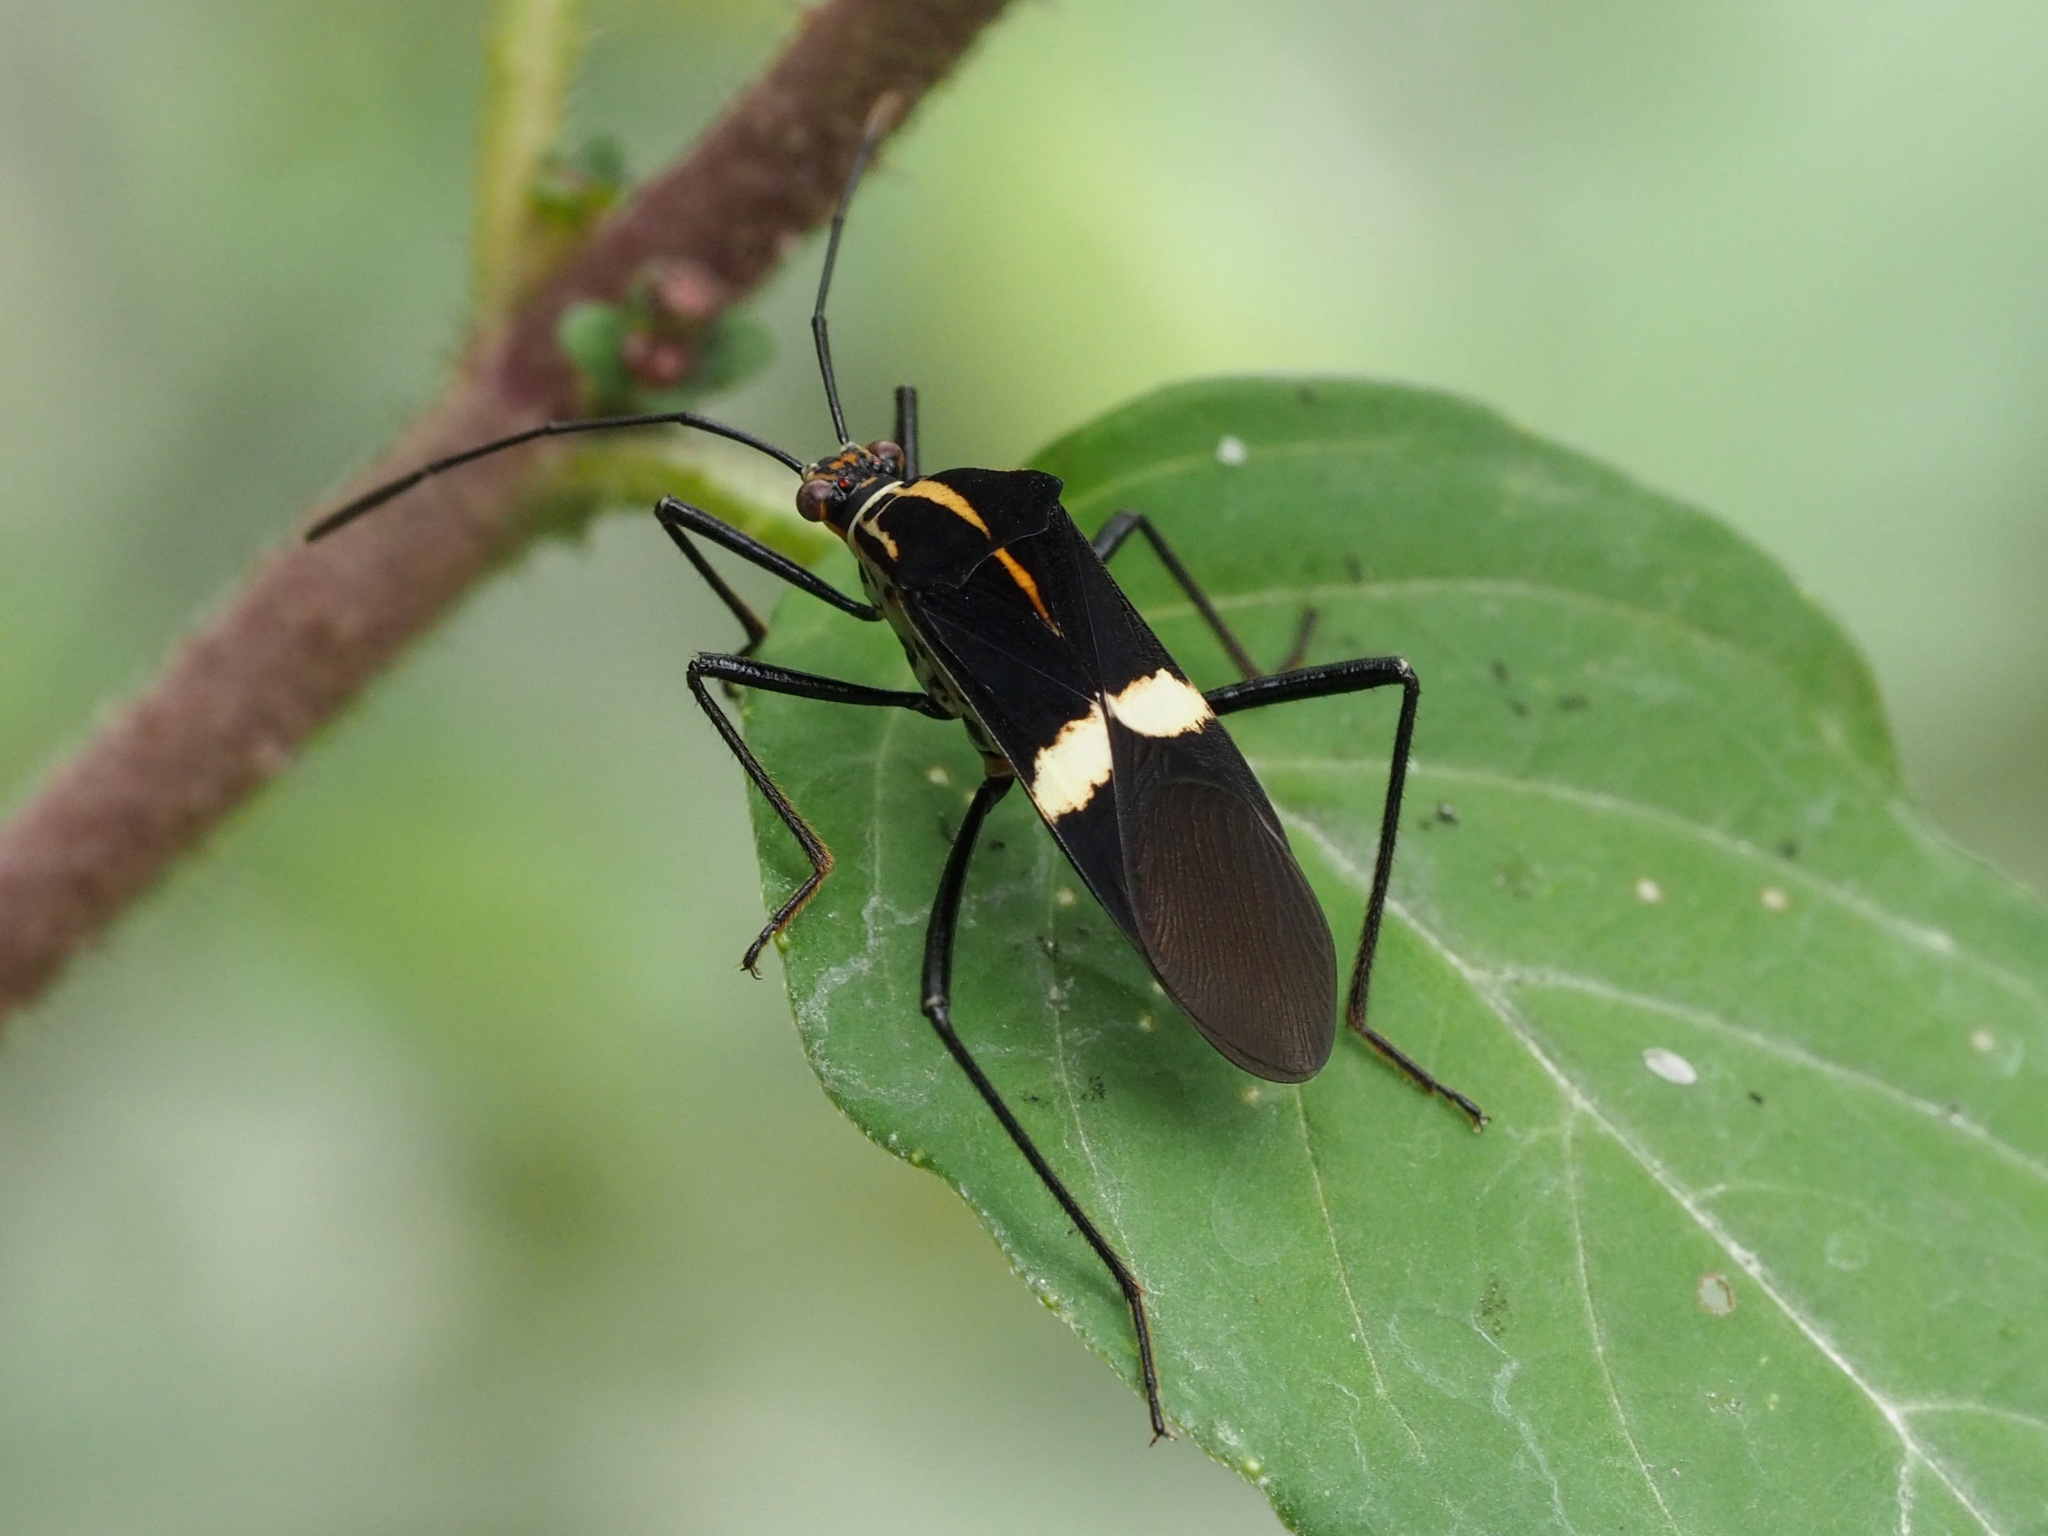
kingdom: Animalia
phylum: Arthropoda
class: Insecta
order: Hemiptera
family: Coreidae
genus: Hypselonotus
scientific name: Hypselonotus interruptus
